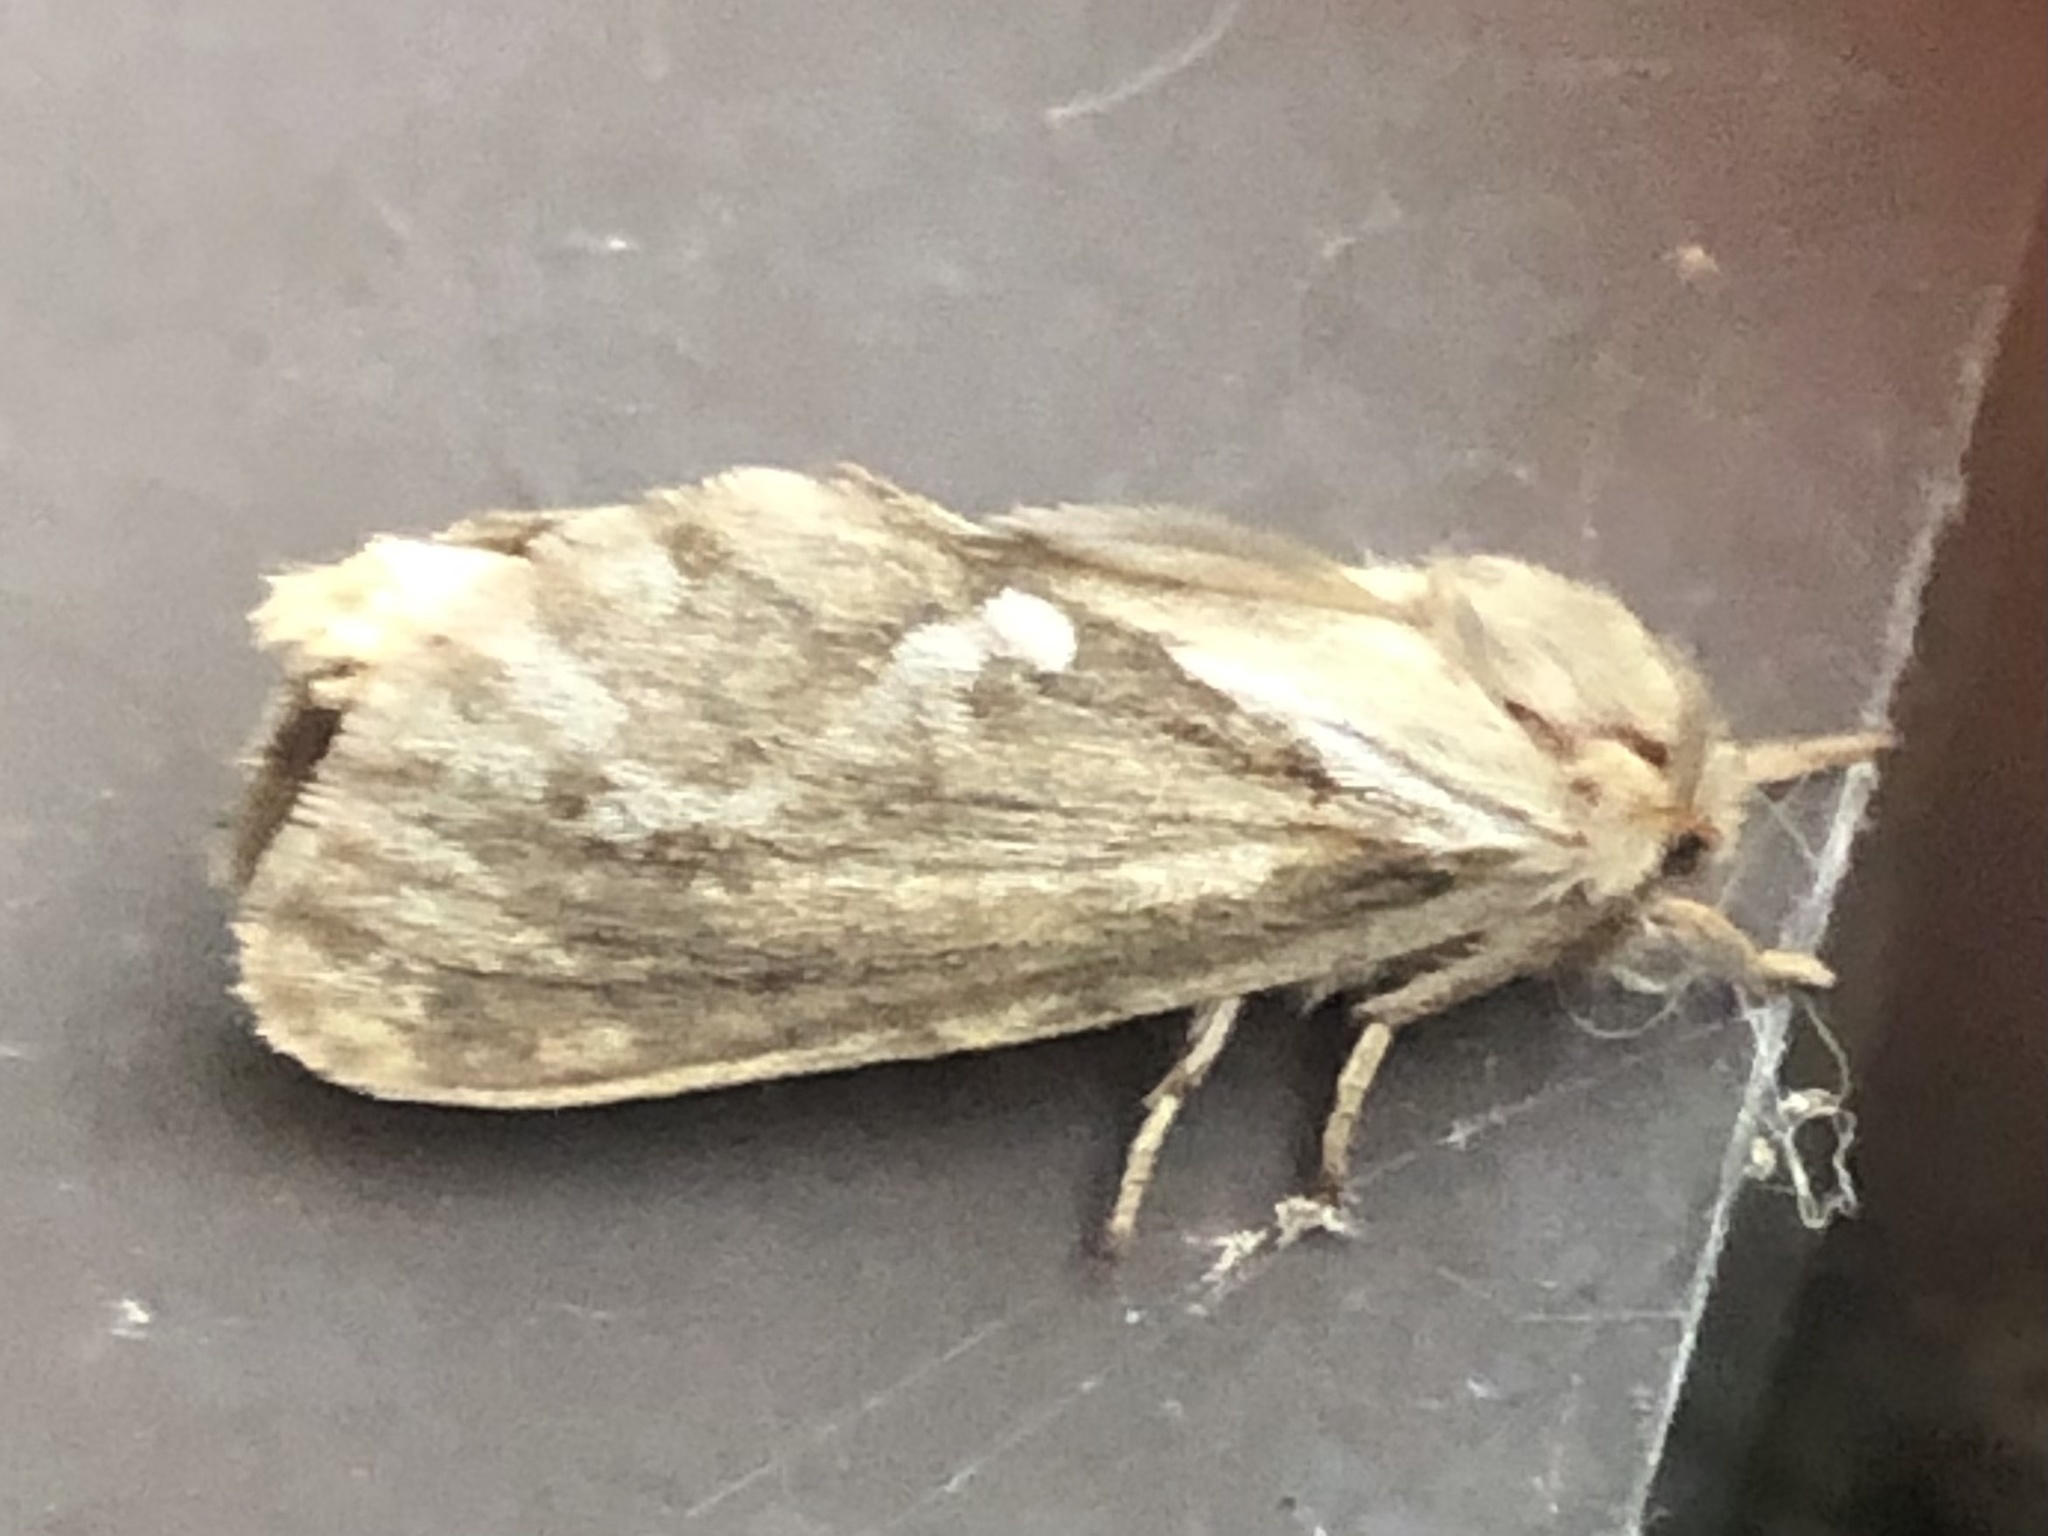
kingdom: Animalia
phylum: Arthropoda
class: Insecta
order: Lepidoptera
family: Hepialidae
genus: Korscheltellus
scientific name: Korscheltellus lupulina
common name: Common swift
